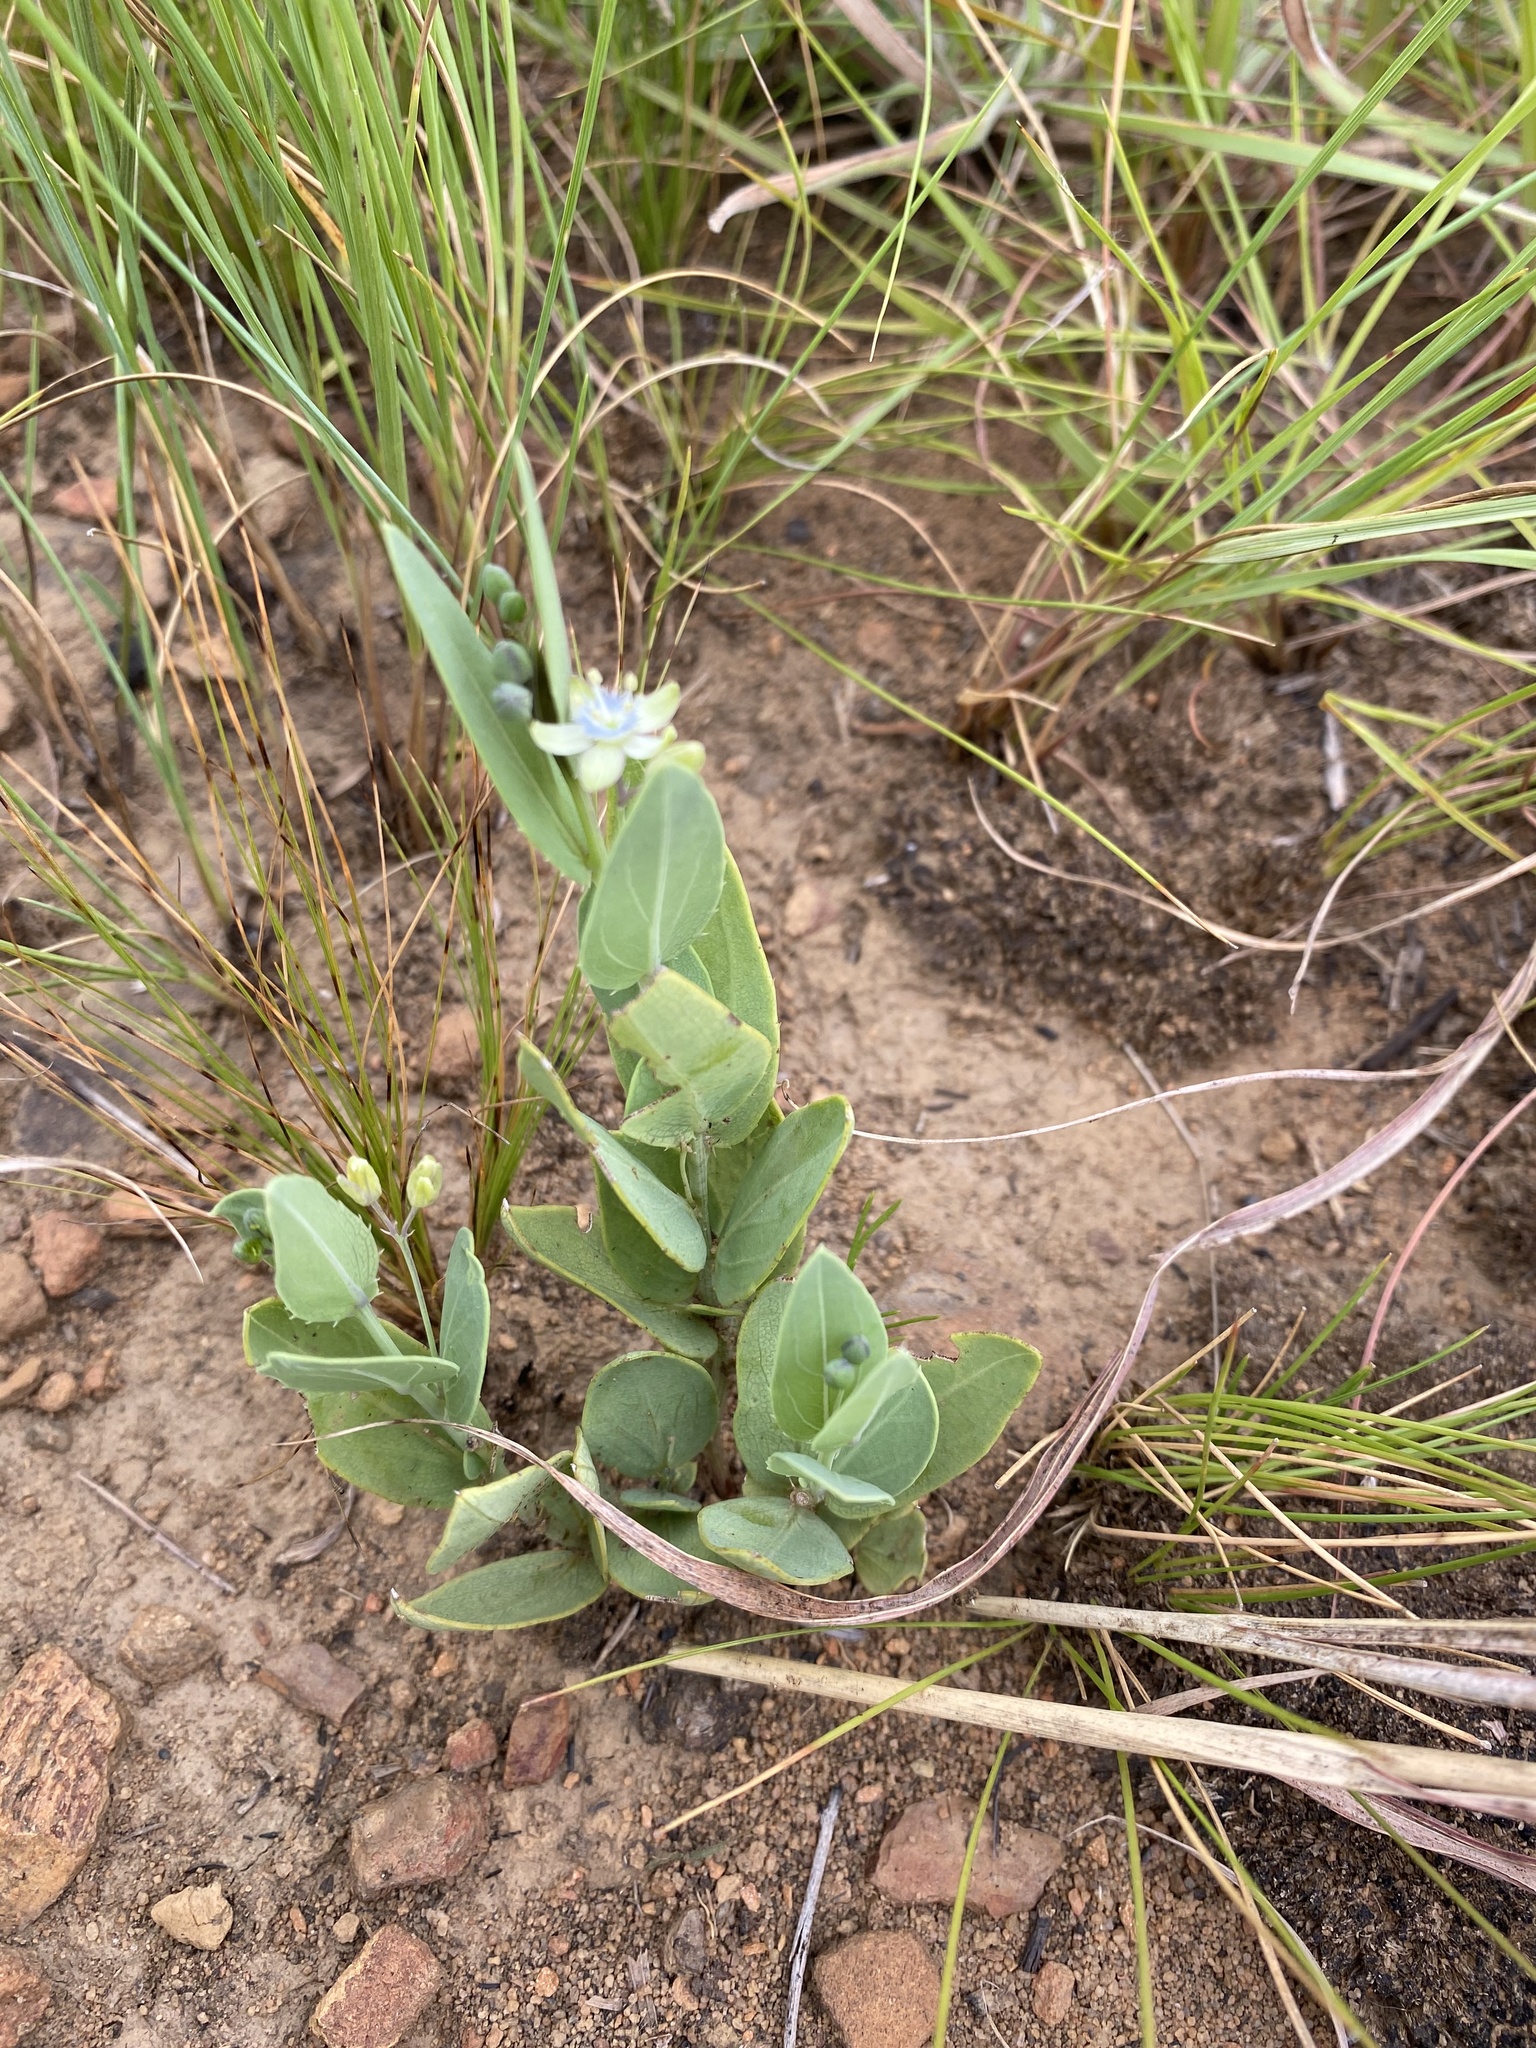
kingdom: Plantae
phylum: Tracheophyta
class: Magnoliopsida
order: Malpighiales
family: Passifloraceae
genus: Basananthe
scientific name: Basananthe sandersonii
